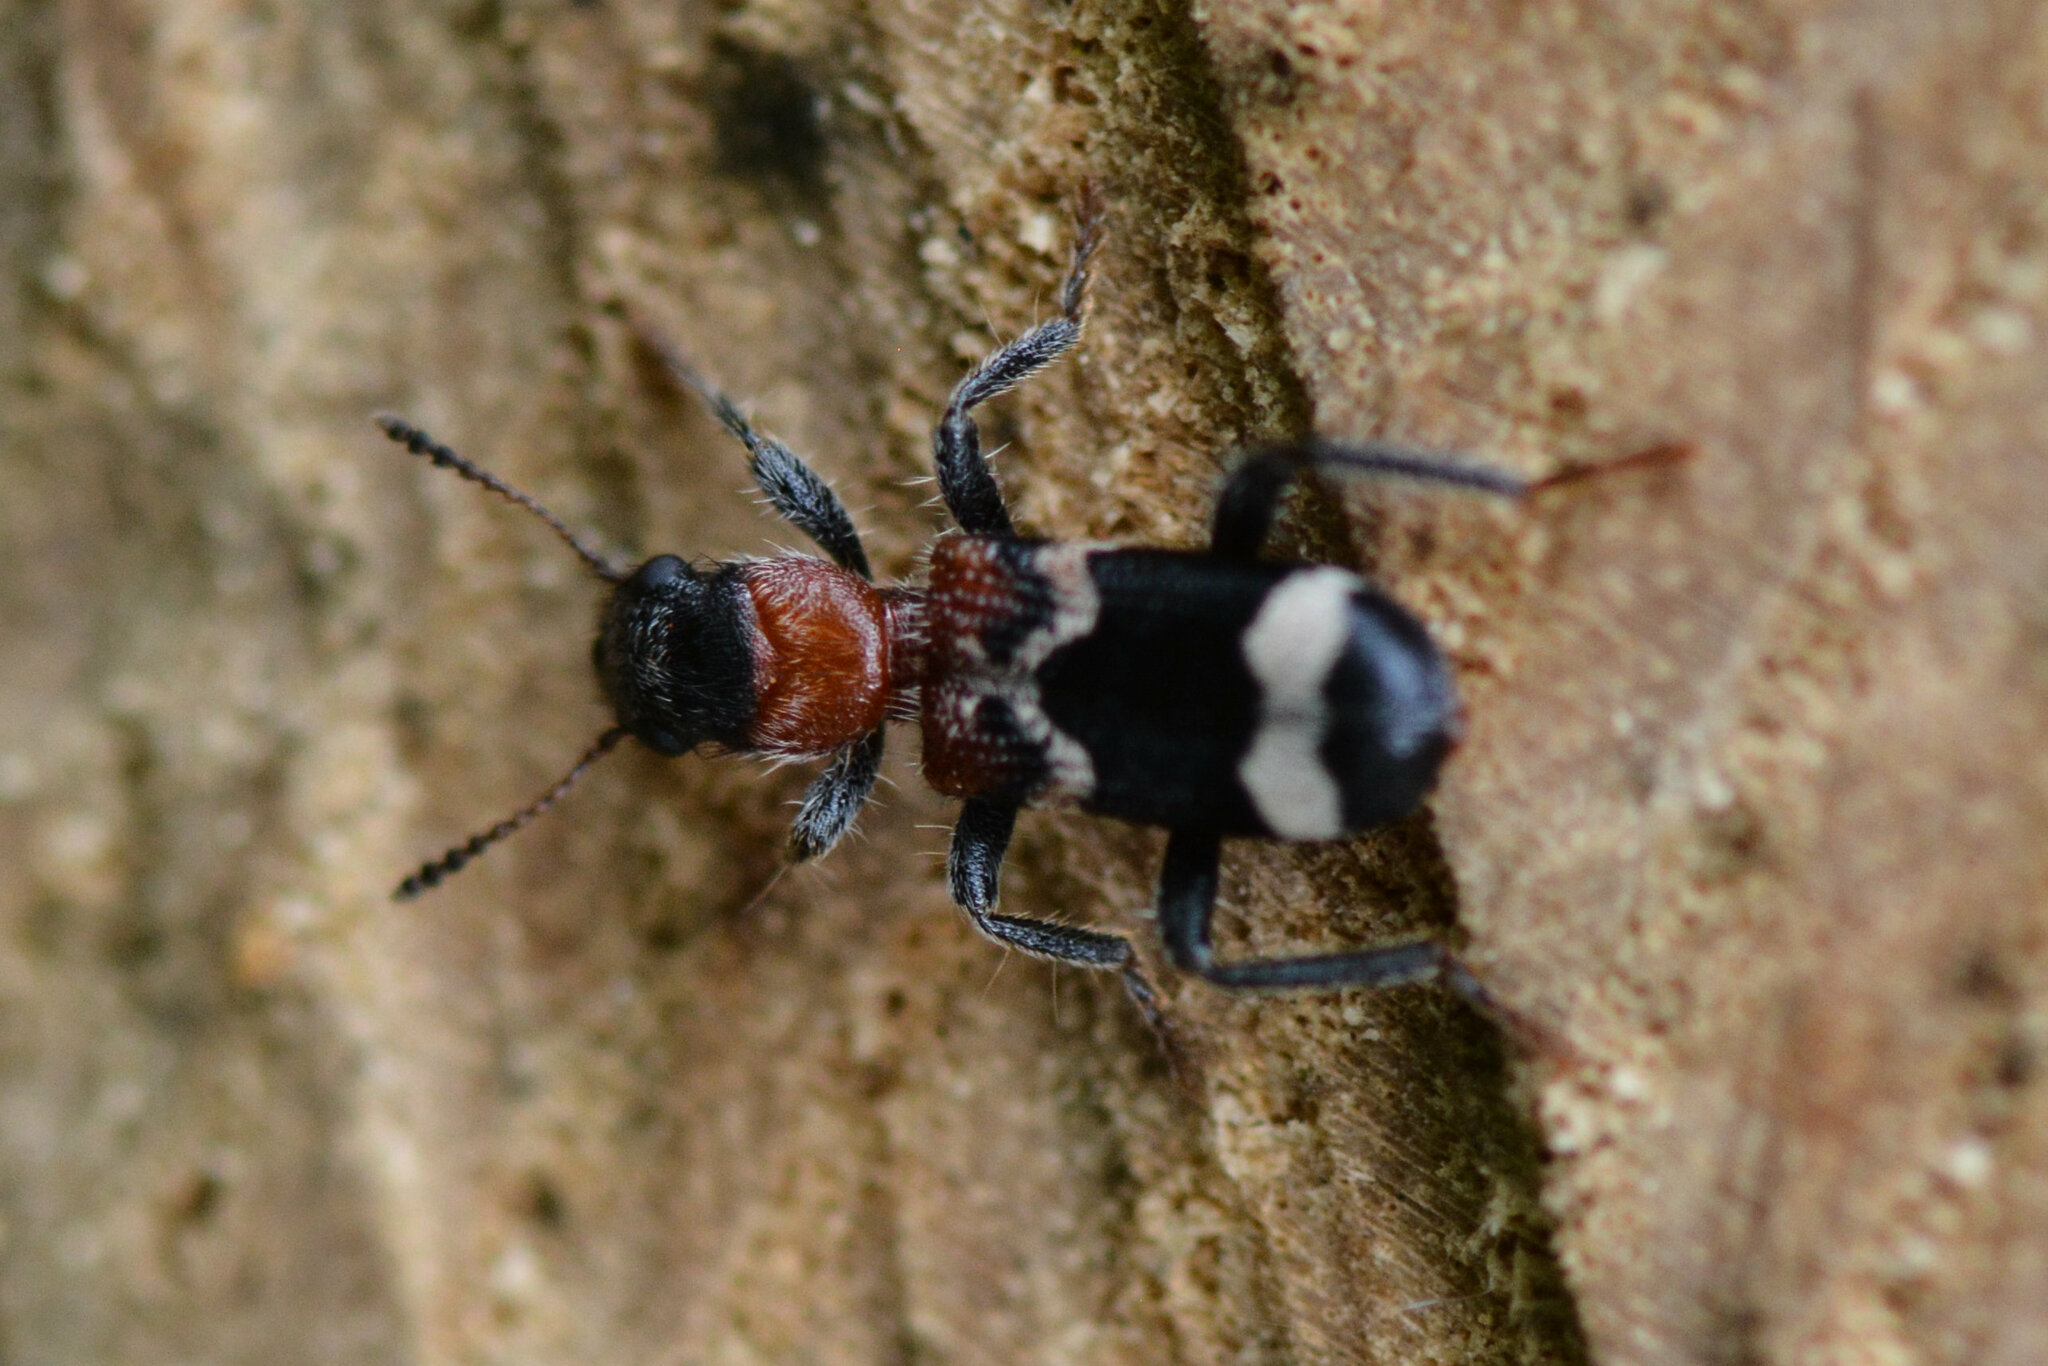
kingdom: Animalia
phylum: Arthropoda
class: Insecta
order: Coleoptera
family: Cleridae
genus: Thanasimus
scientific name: Thanasimus formicarius
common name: Ant beetle
